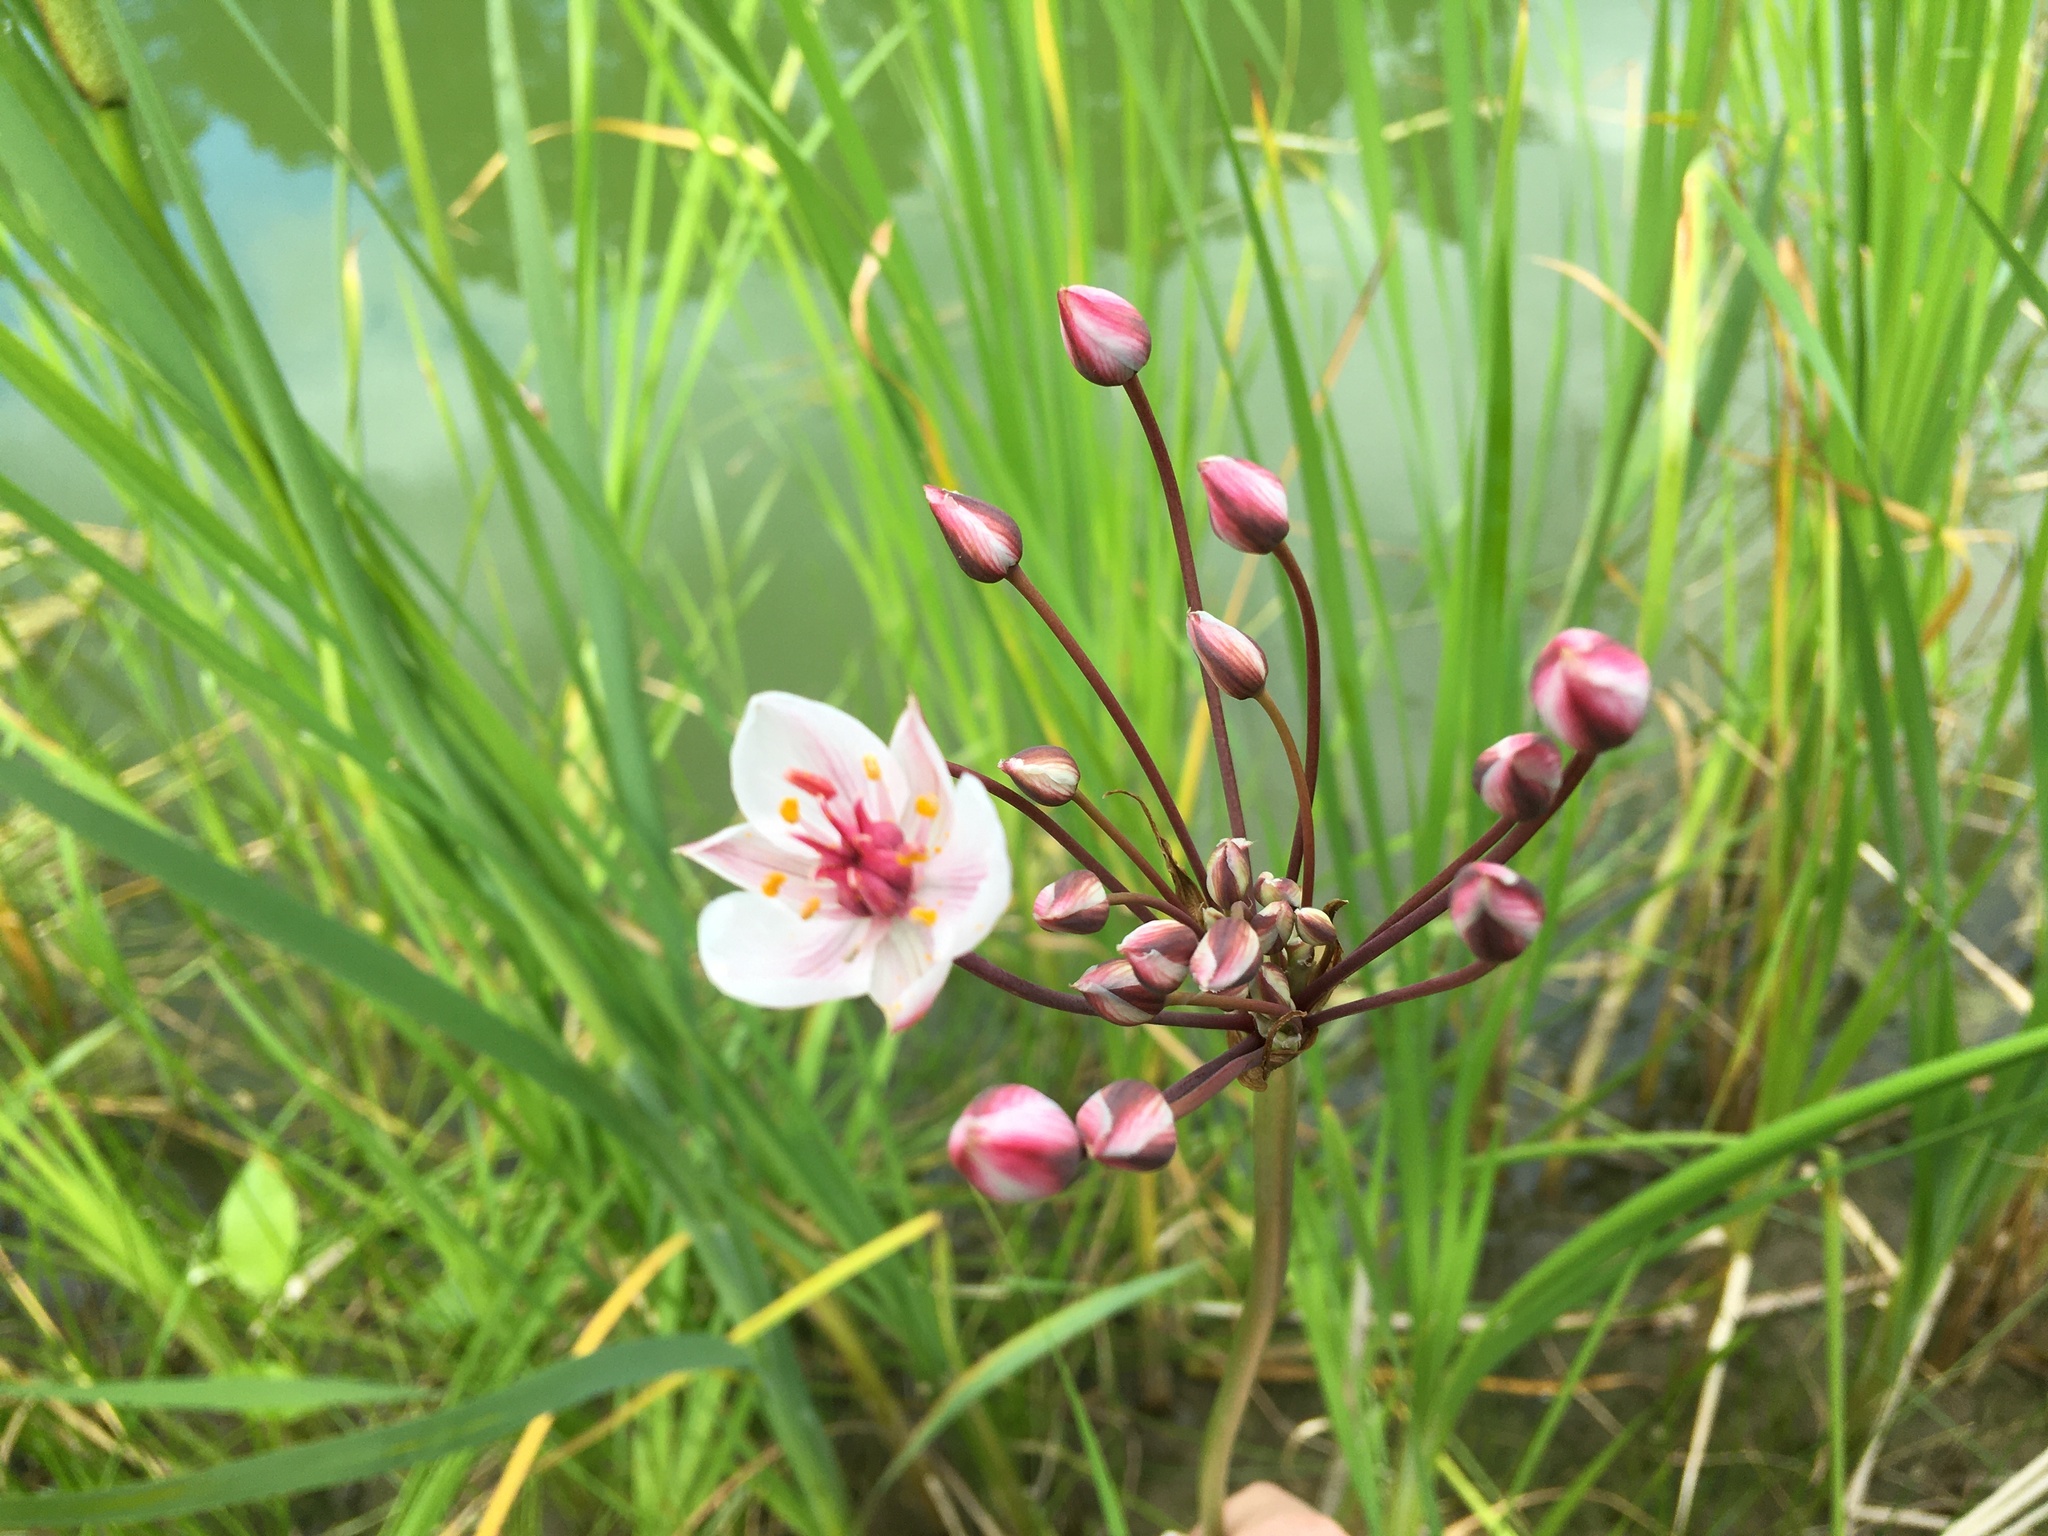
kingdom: Plantae
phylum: Tracheophyta
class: Liliopsida
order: Alismatales
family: Butomaceae
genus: Butomus
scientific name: Butomus umbellatus
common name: Flowering-rush
